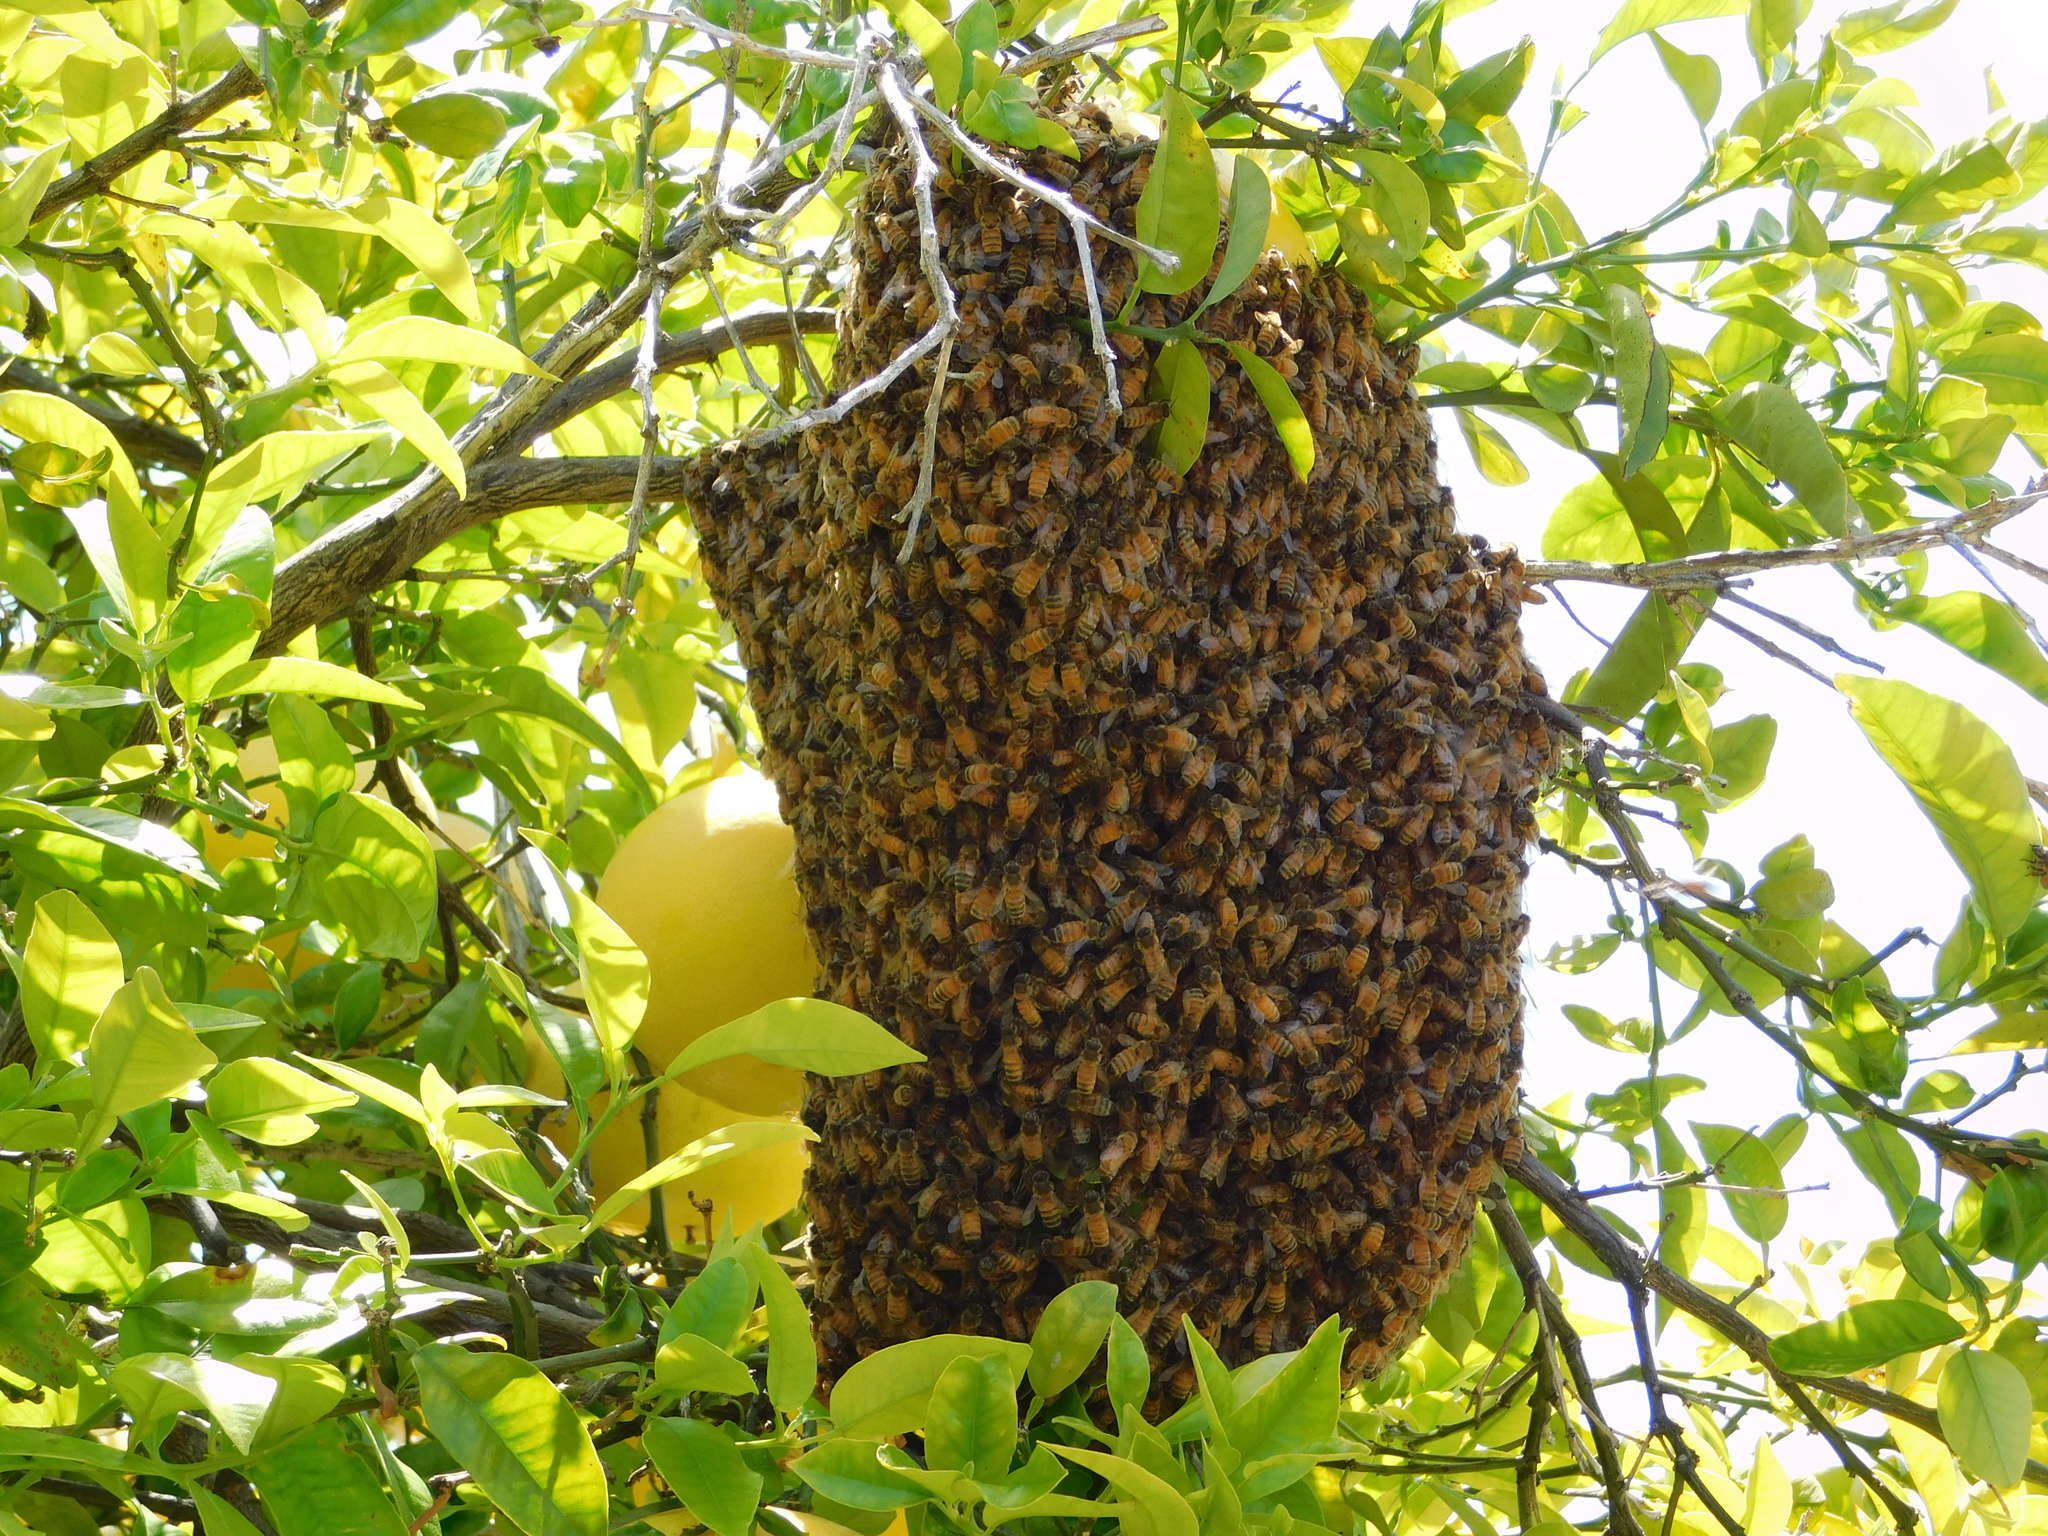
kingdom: Animalia
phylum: Arthropoda
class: Insecta
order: Hymenoptera
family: Apidae
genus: Apis
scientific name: Apis mellifera
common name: Honey bee
